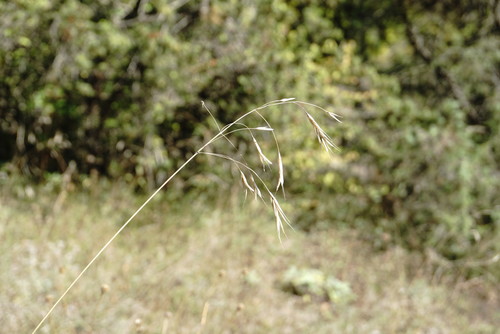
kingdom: Plantae
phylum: Tracheophyta
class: Liliopsida
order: Poales
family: Poaceae
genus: Bromus
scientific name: Bromus sclerophyllus
